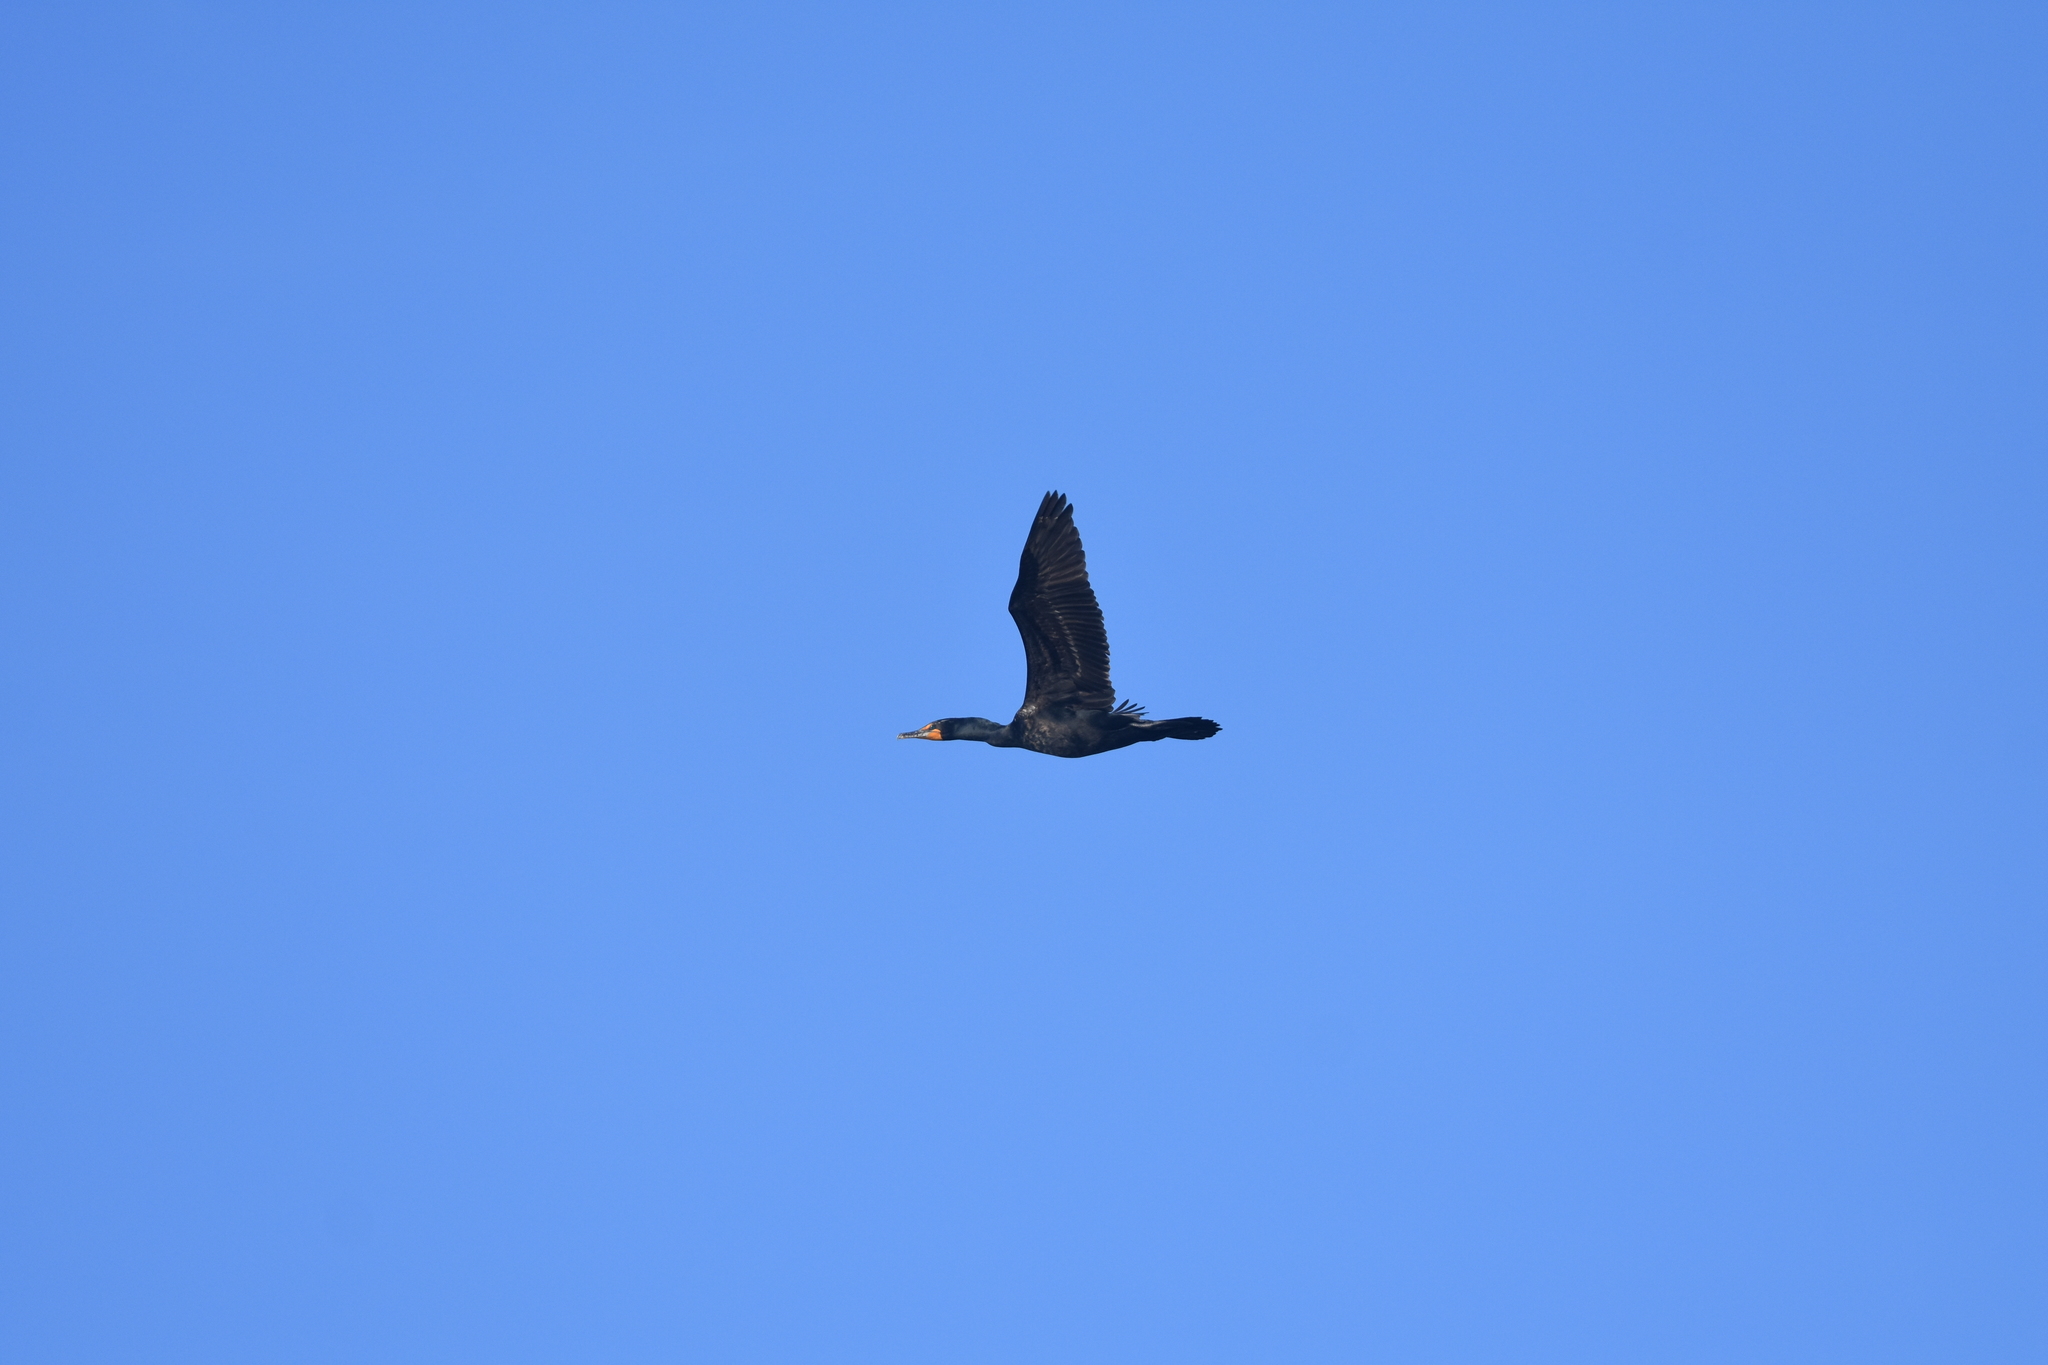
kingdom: Animalia
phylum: Chordata
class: Aves
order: Suliformes
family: Phalacrocoracidae
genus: Phalacrocorax
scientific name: Phalacrocorax auritus
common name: Double-crested cormorant
